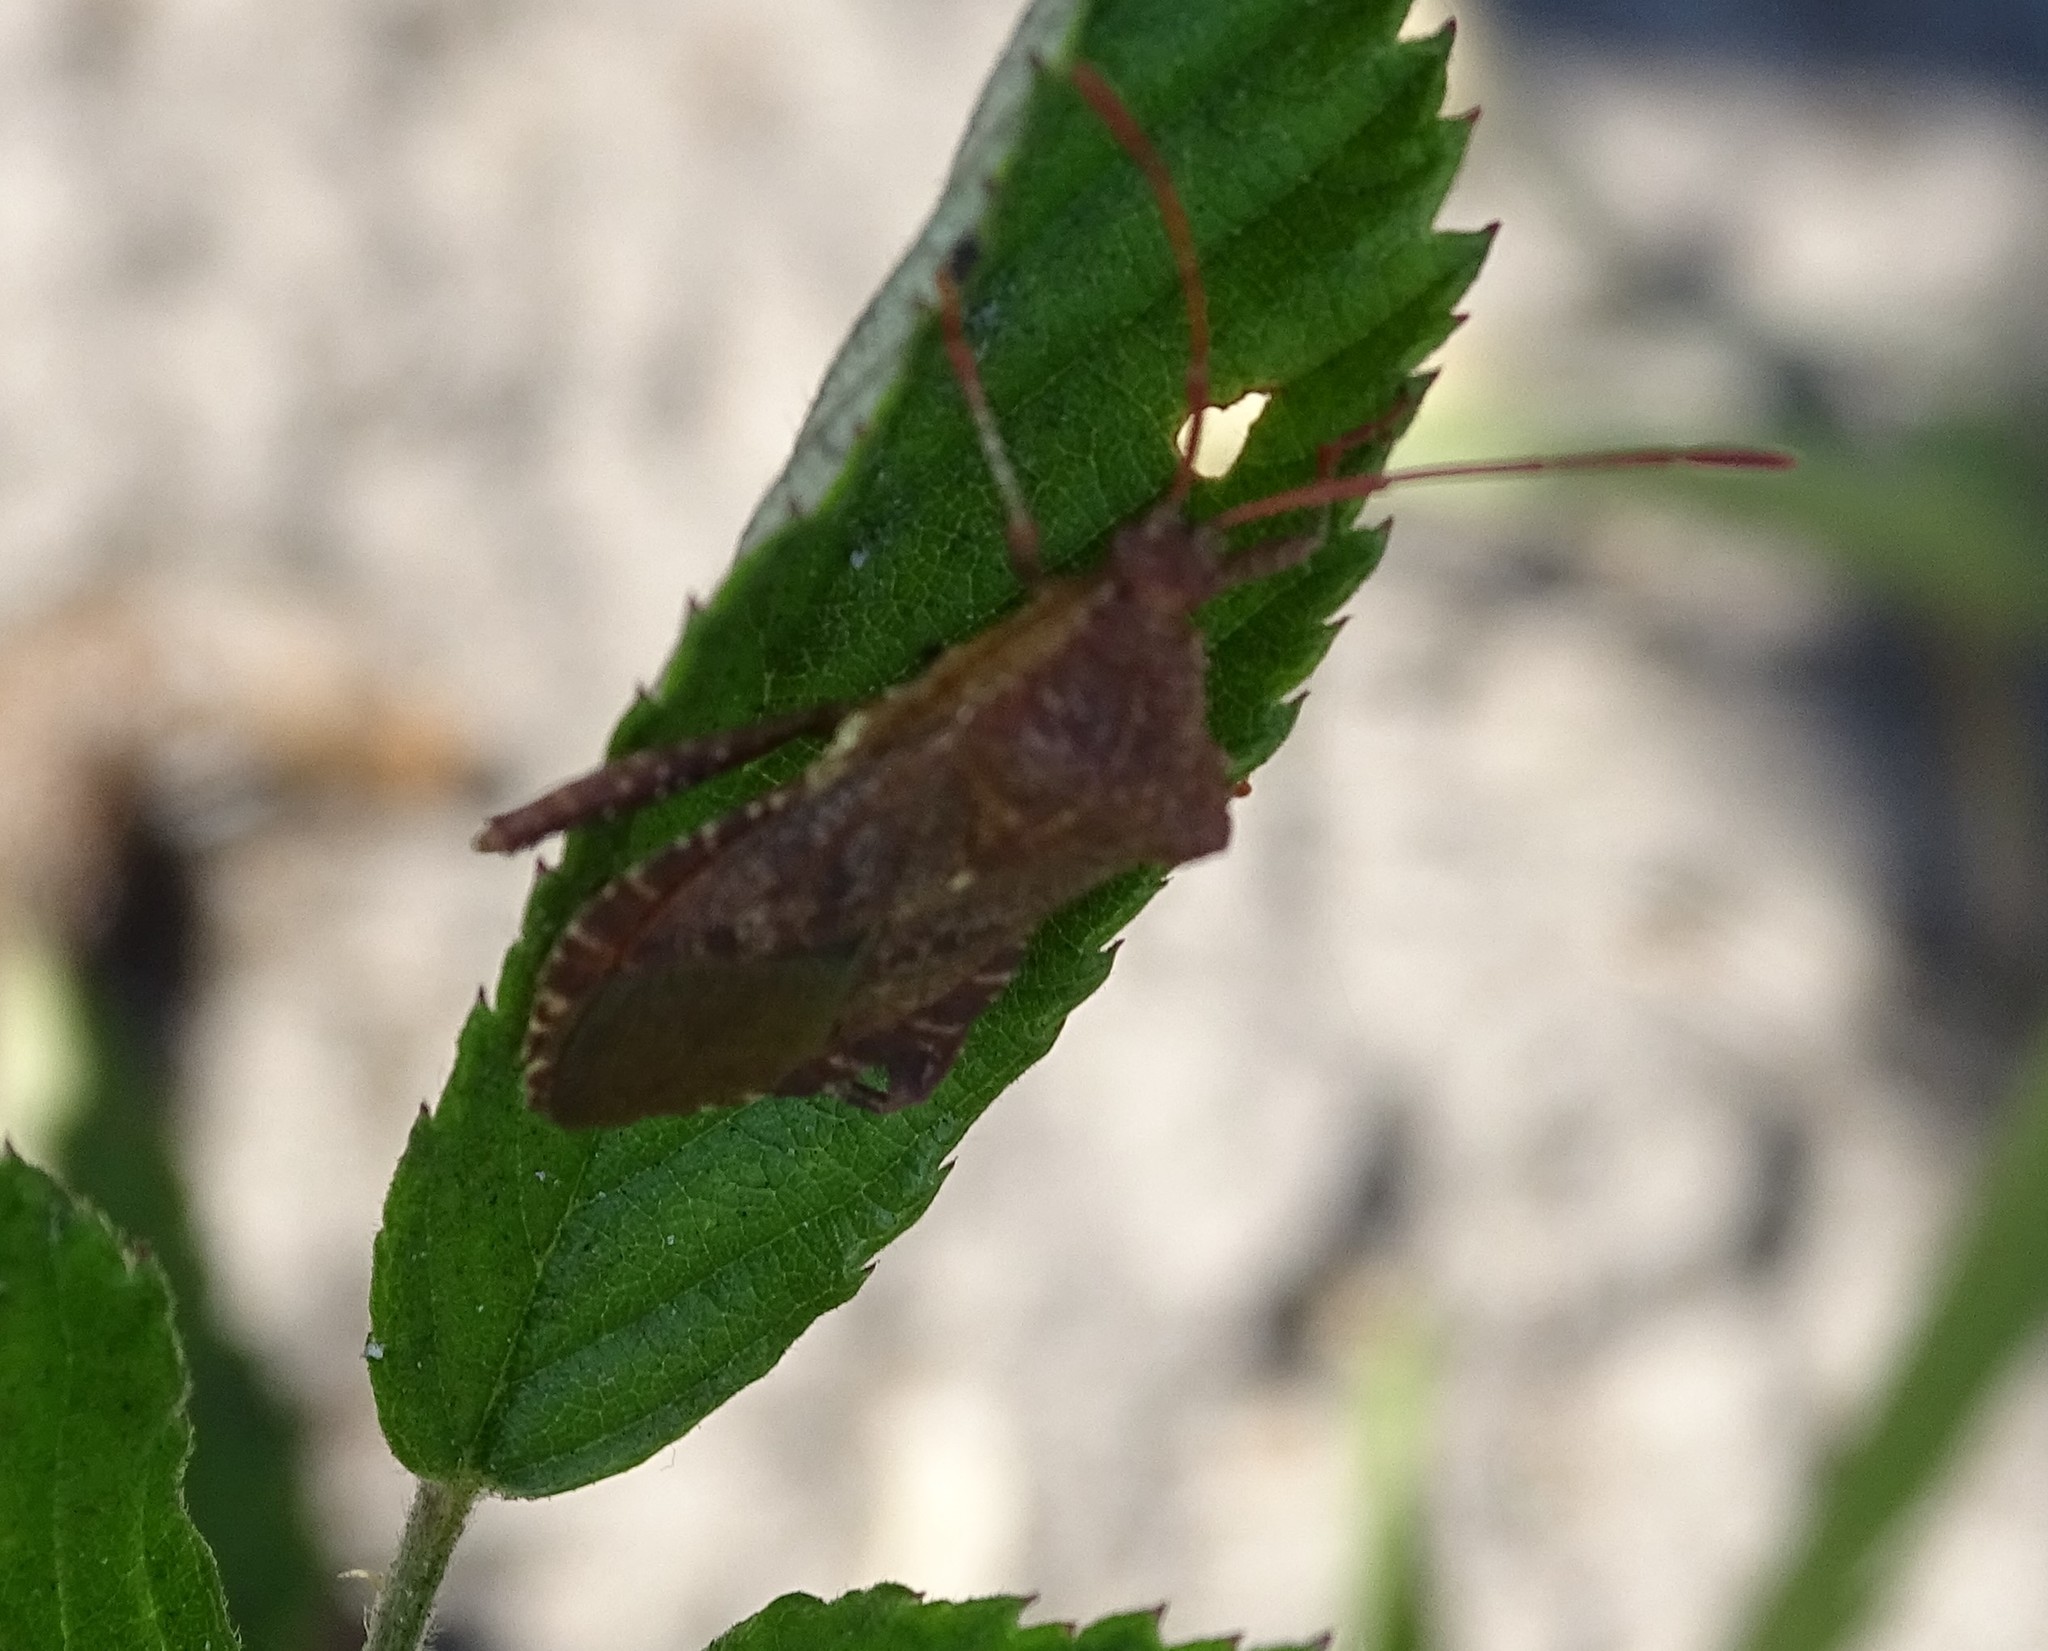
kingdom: Animalia
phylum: Arthropoda
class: Insecta
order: Hemiptera
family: Coreidae
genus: Euthochtha
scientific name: Euthochtha galeator
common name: Helmeted squash bug
